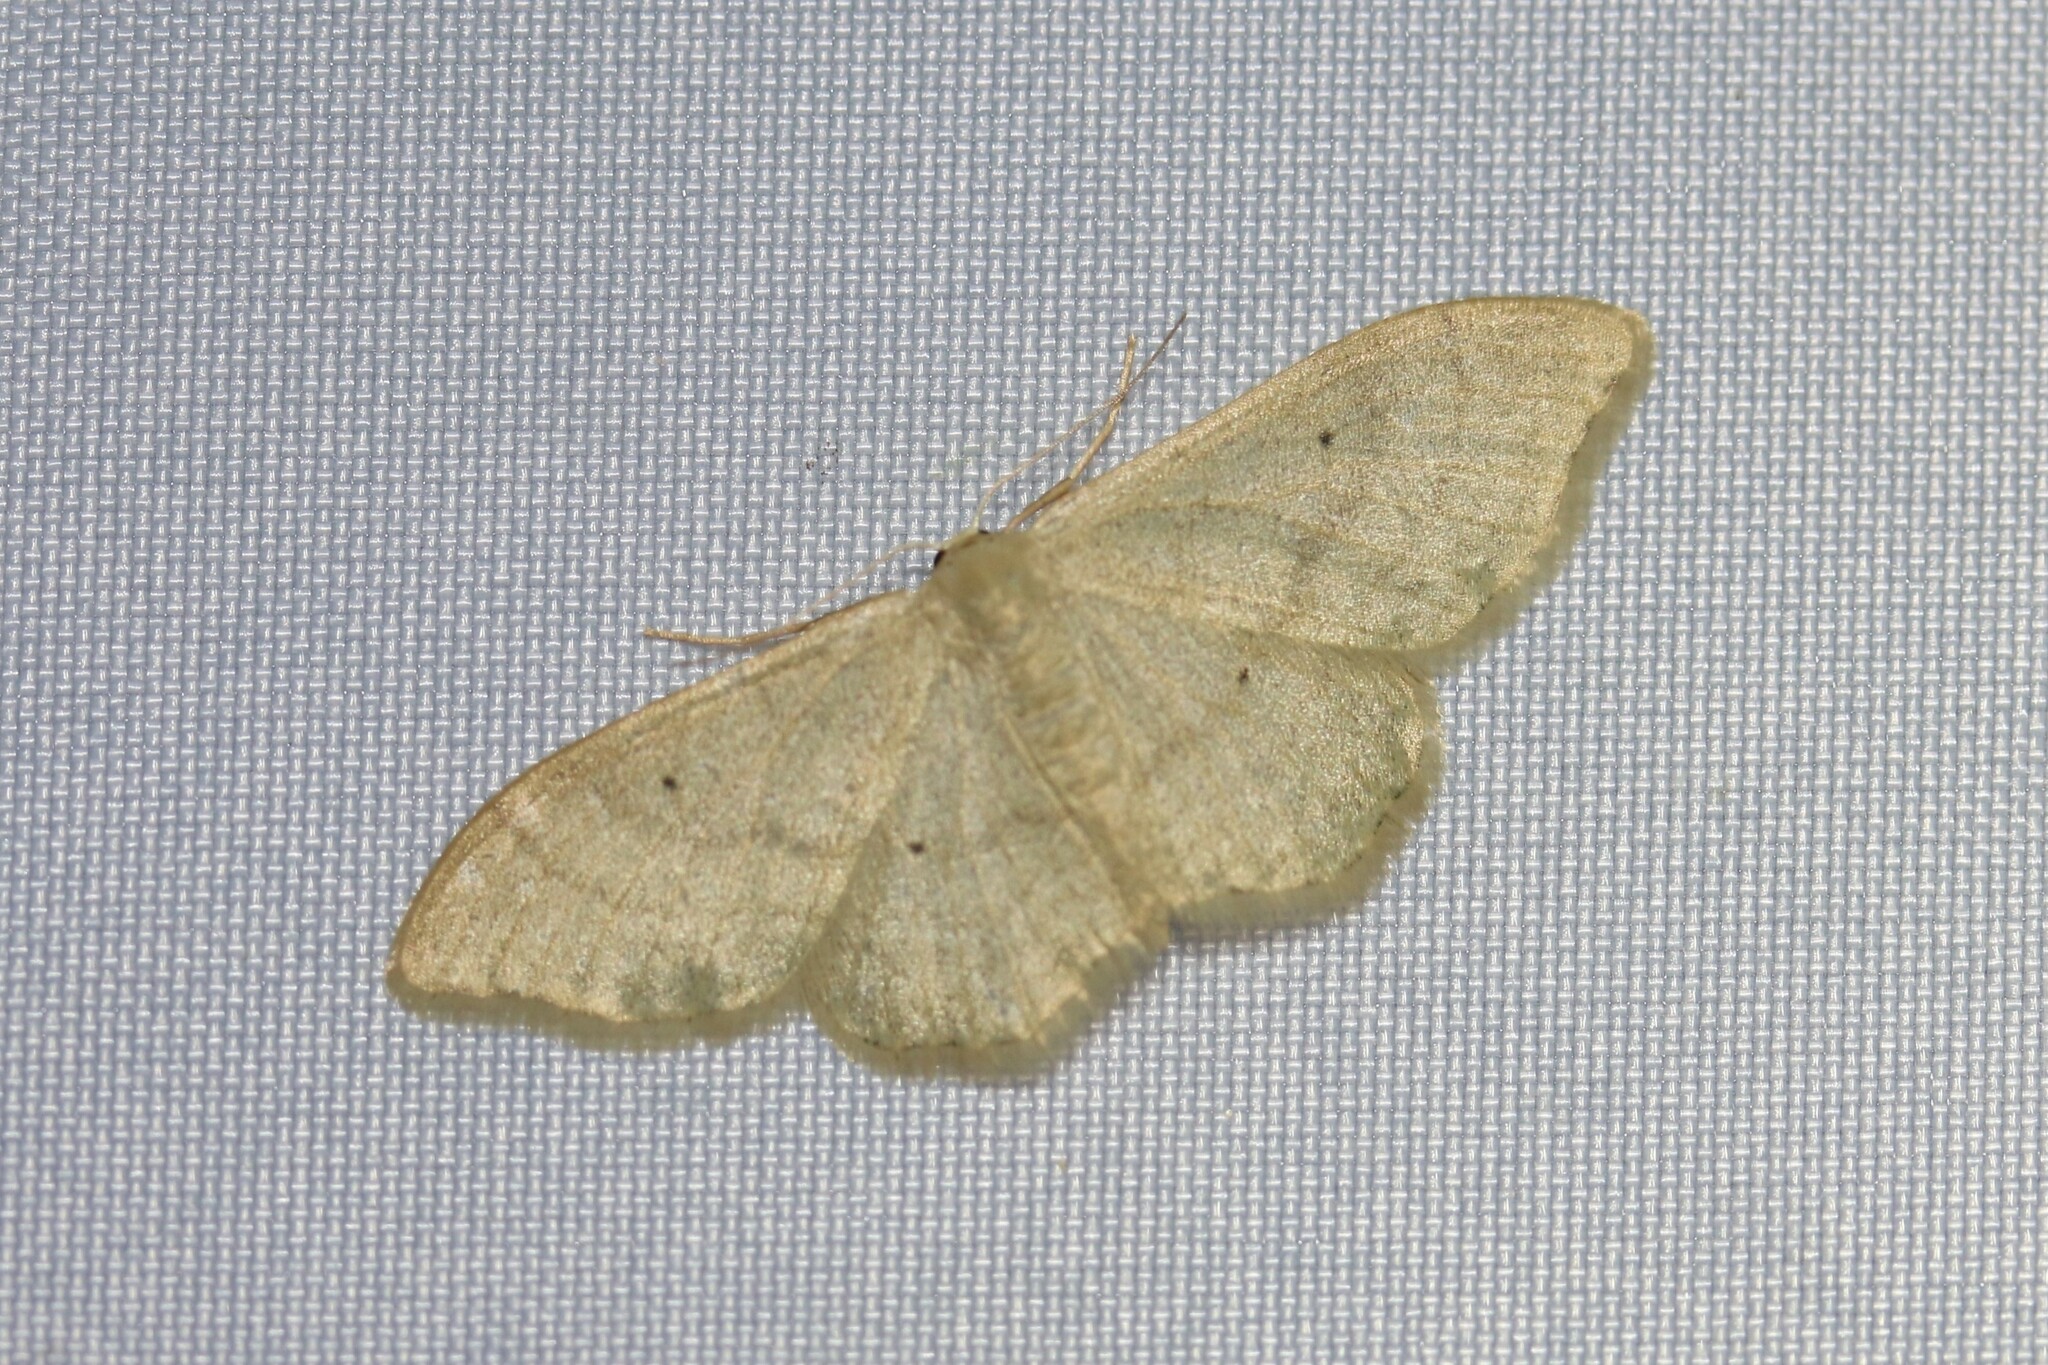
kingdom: Animalia
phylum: Arthropoda
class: Insecta
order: Lepidoptera
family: Geometridae
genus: Idaea
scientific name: Idaea straminata
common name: Plain wave
